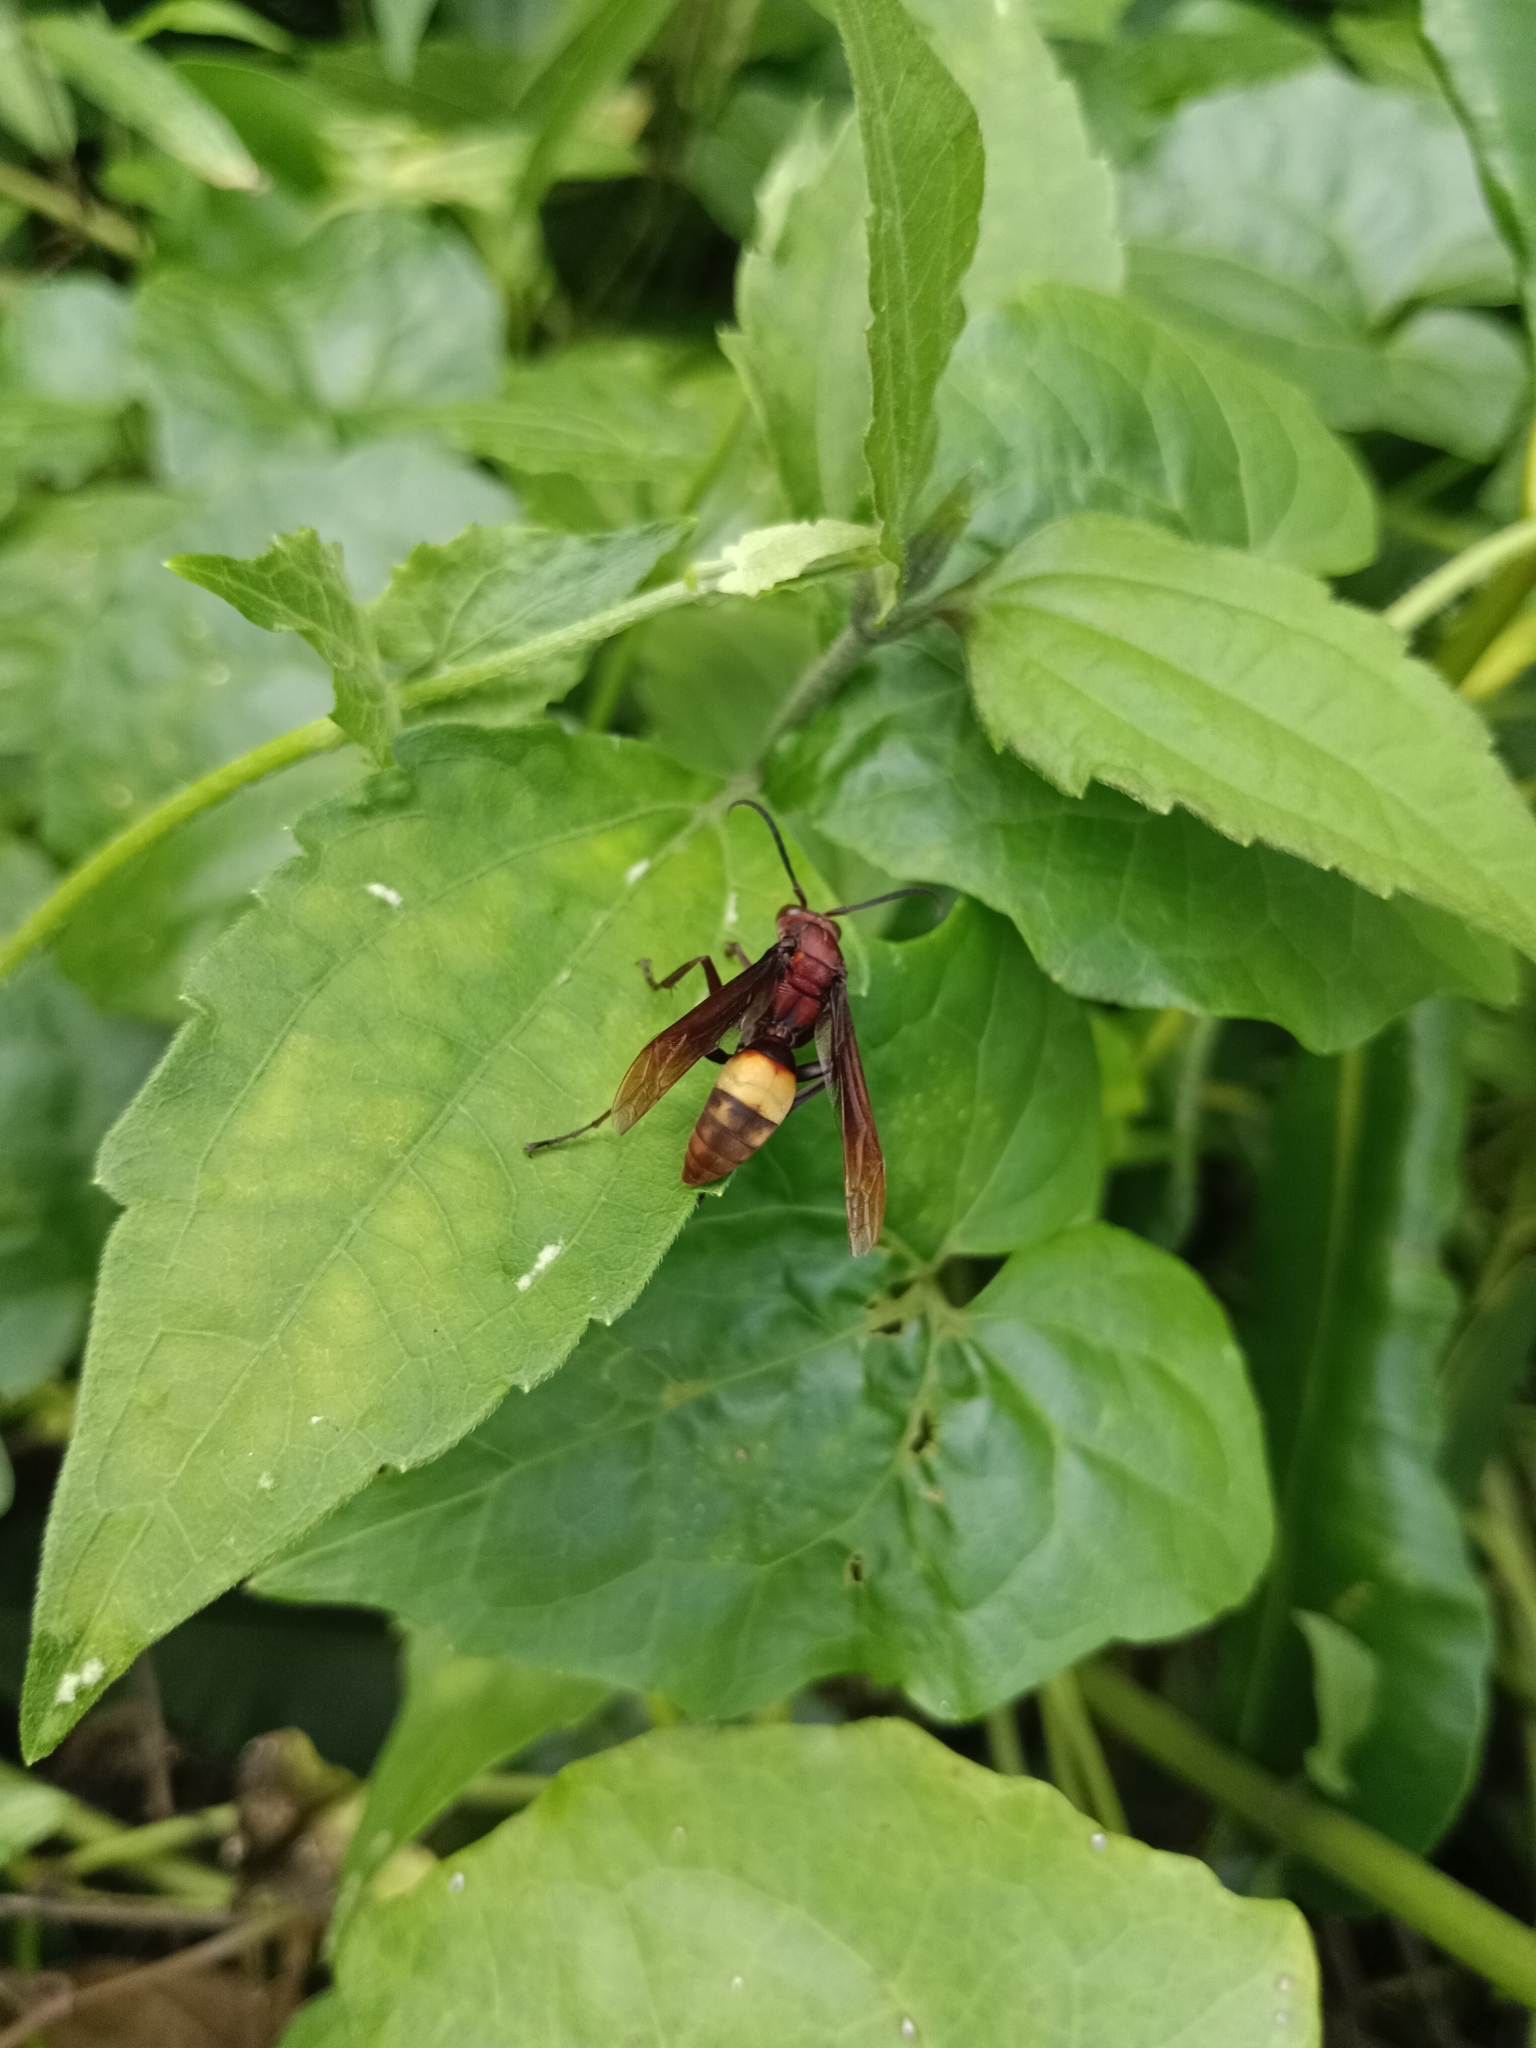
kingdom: Animalia
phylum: Arthropoda
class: Insecta
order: Hymenoptera
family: Eumenidae
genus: Polistes
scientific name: Polistes sagittarius
